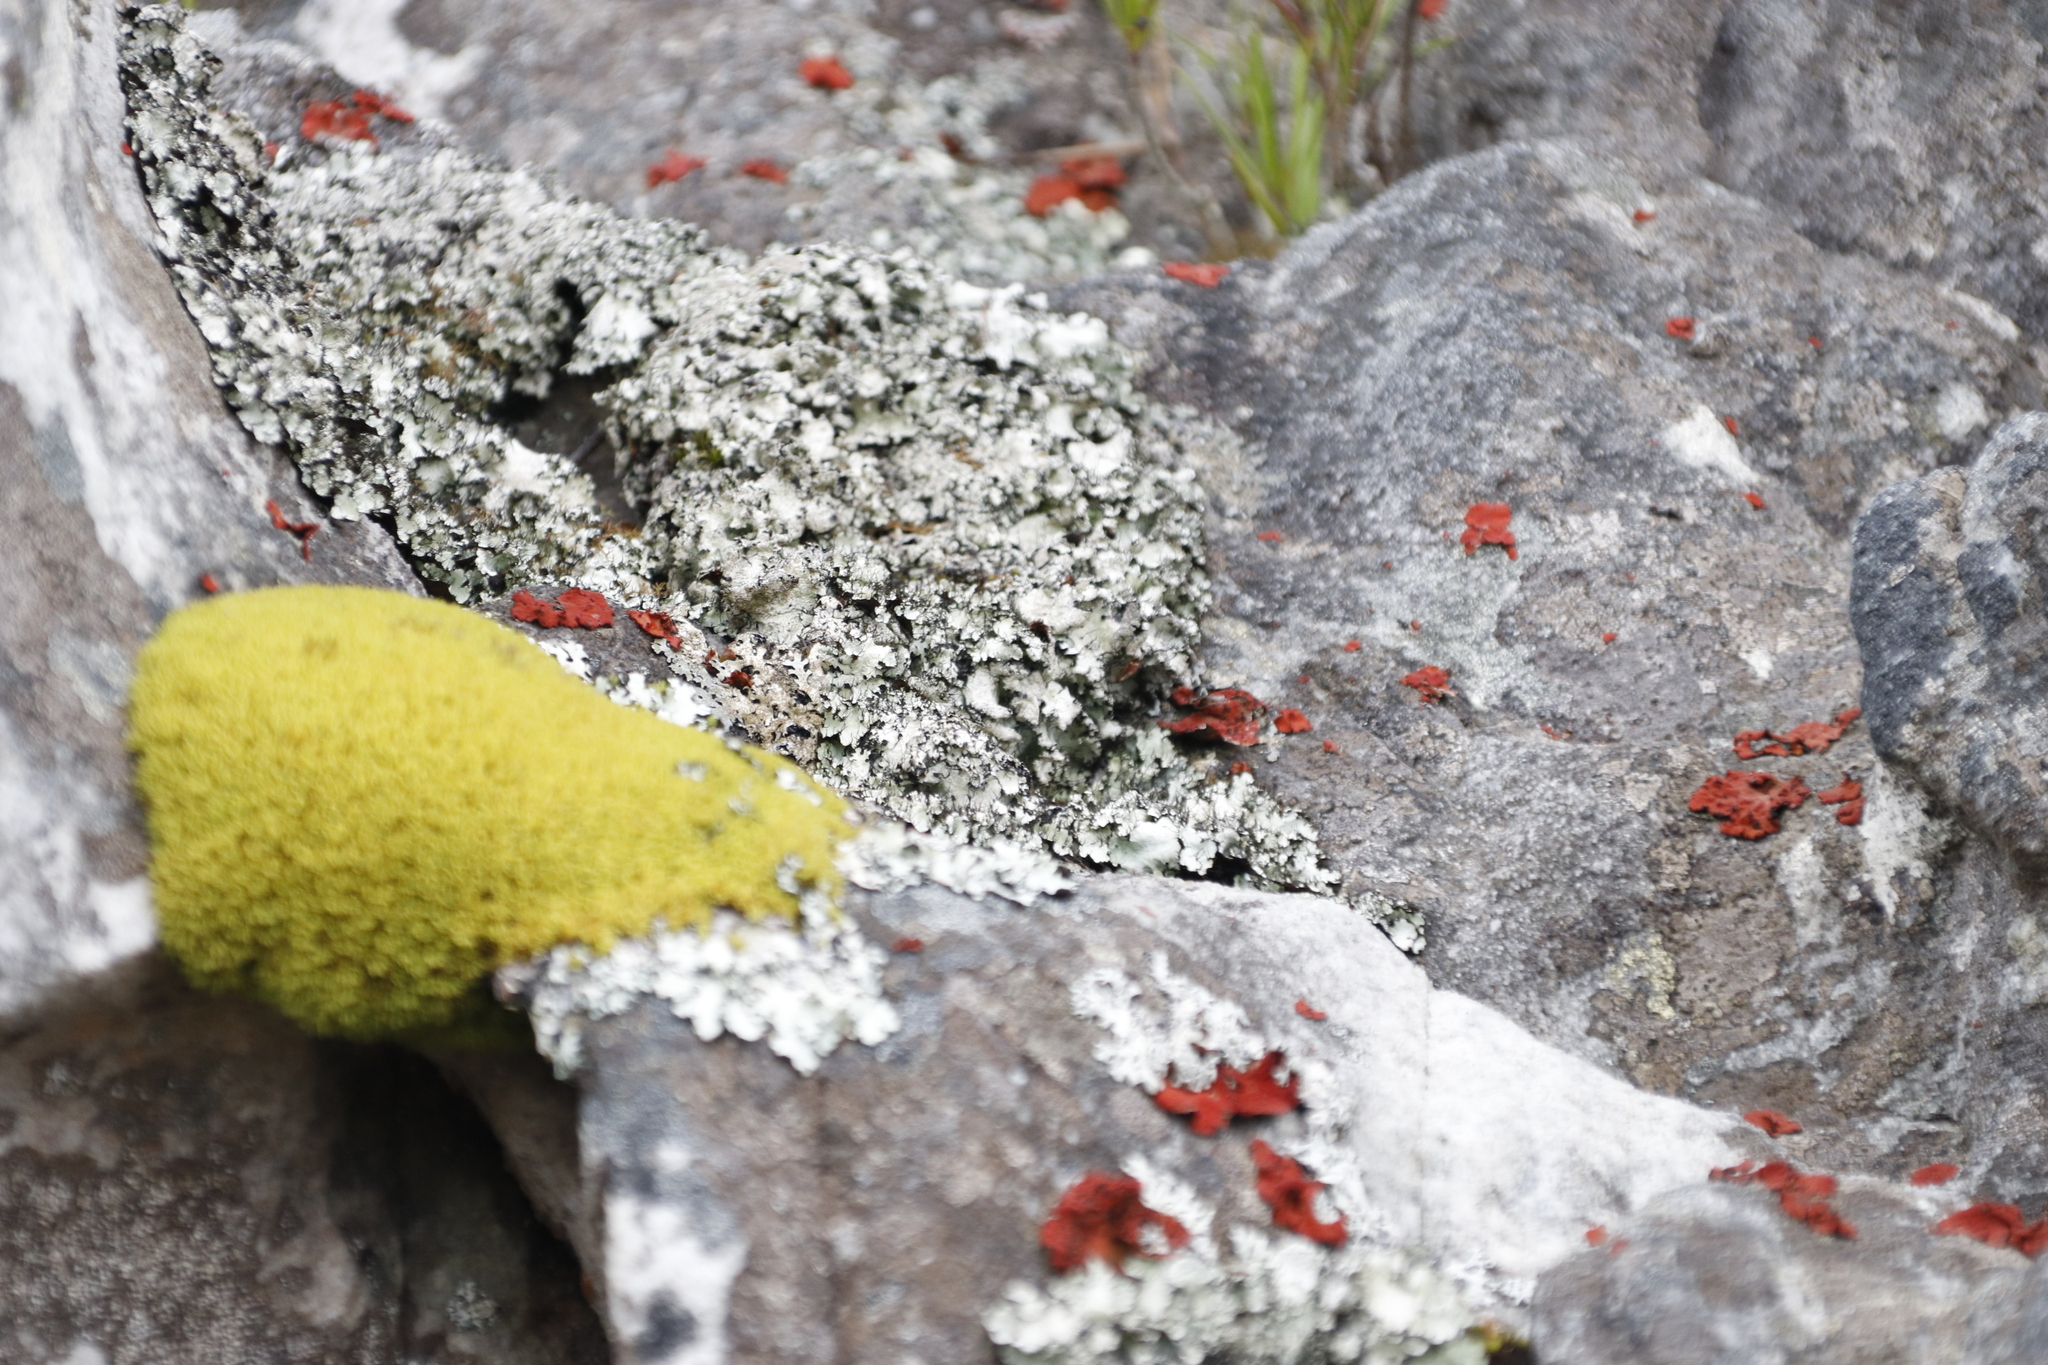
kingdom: Fungi
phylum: Ascomycota
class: Lecanoromycetes
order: Umbilicariales
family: Umbilicariaceae
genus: Lasallia
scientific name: Lasallia rubiginosa
